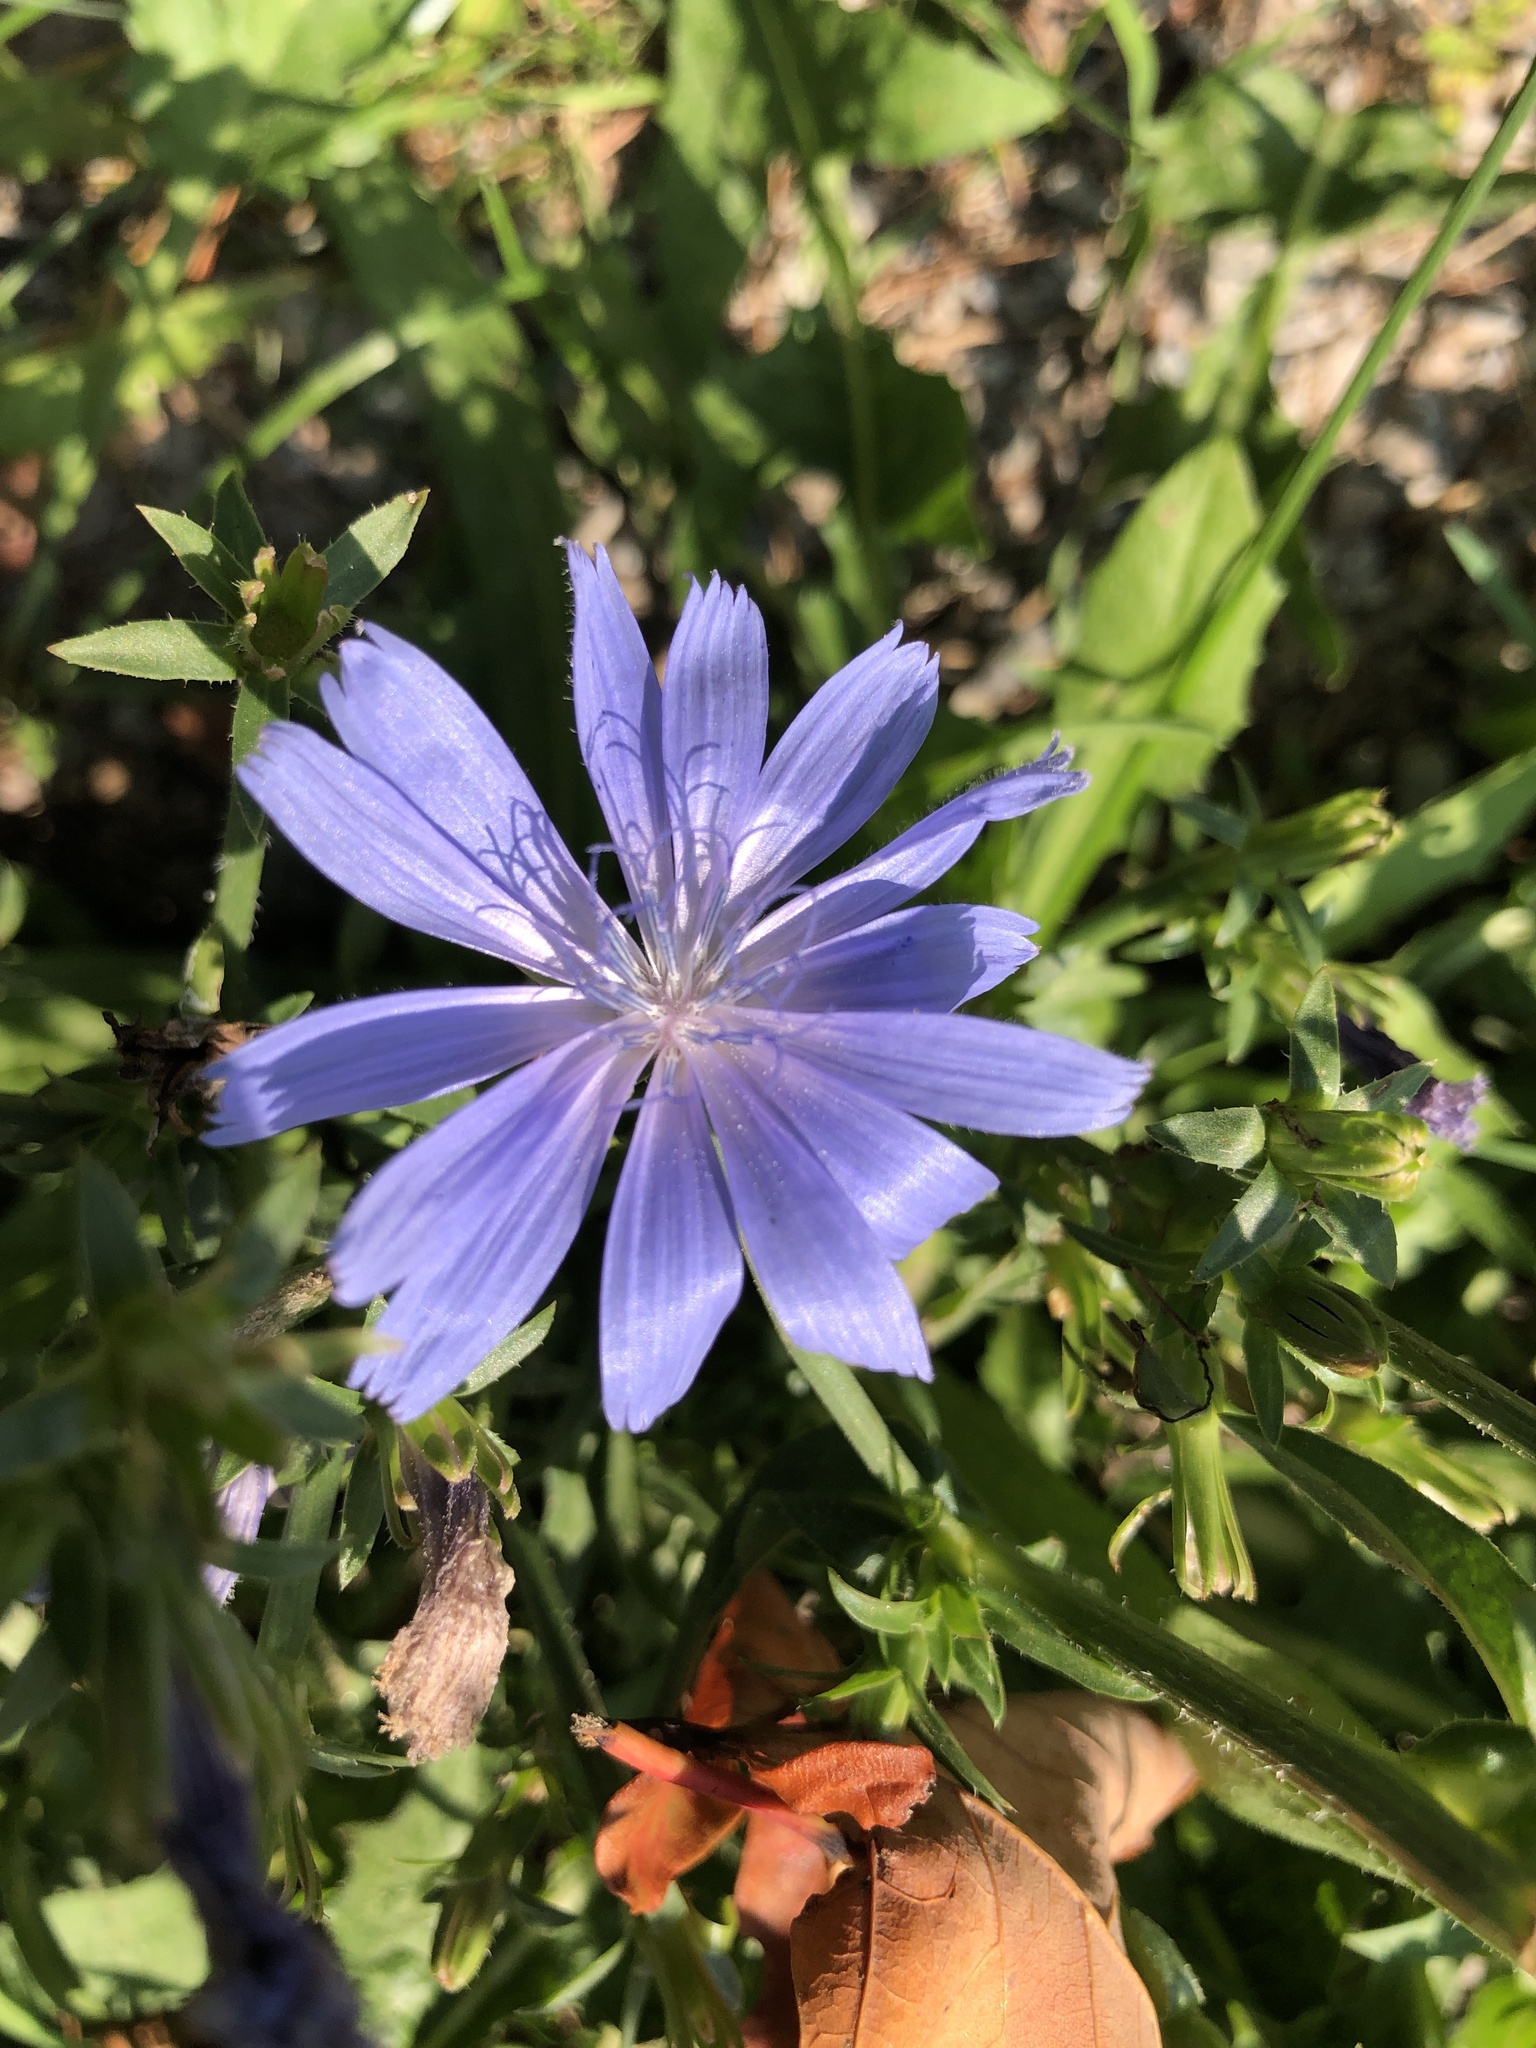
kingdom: Plantae
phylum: Tracheophyta
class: Magnoliopsida
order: Asterales
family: Asteraceae
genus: Cichorium
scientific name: Cichorium intybus
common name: Chicory
